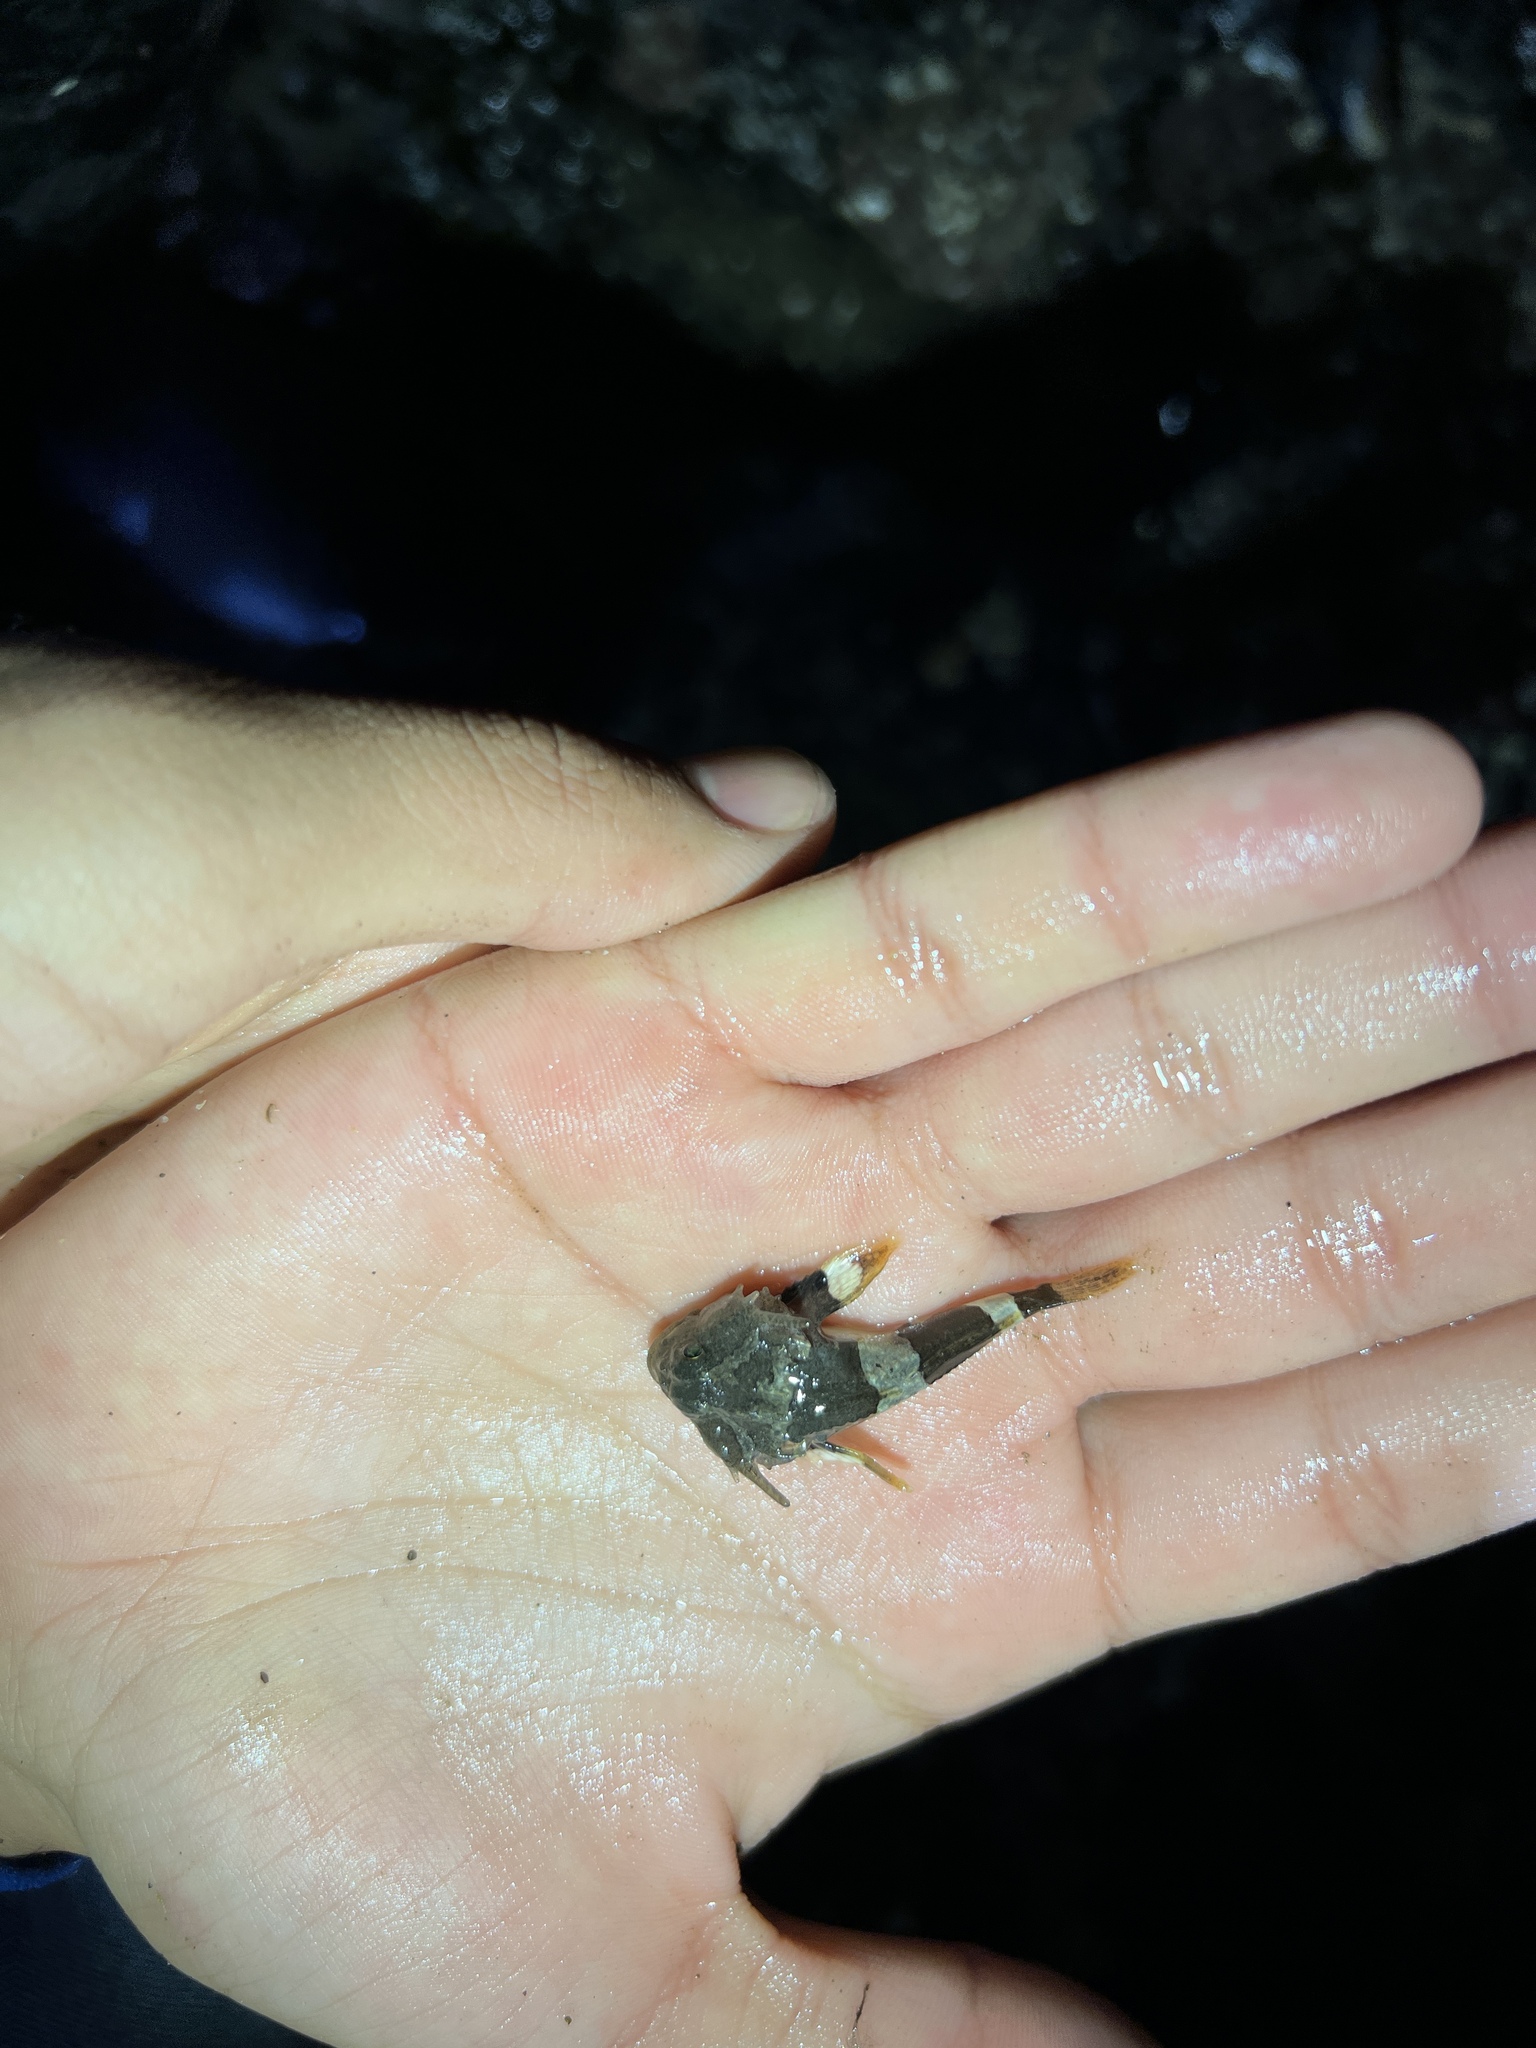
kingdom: Animalia
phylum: Chordata
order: Scorpaeniformes
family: Cottidae
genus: Enophrys
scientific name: Enophrys bison
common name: Buffalo sculpin
